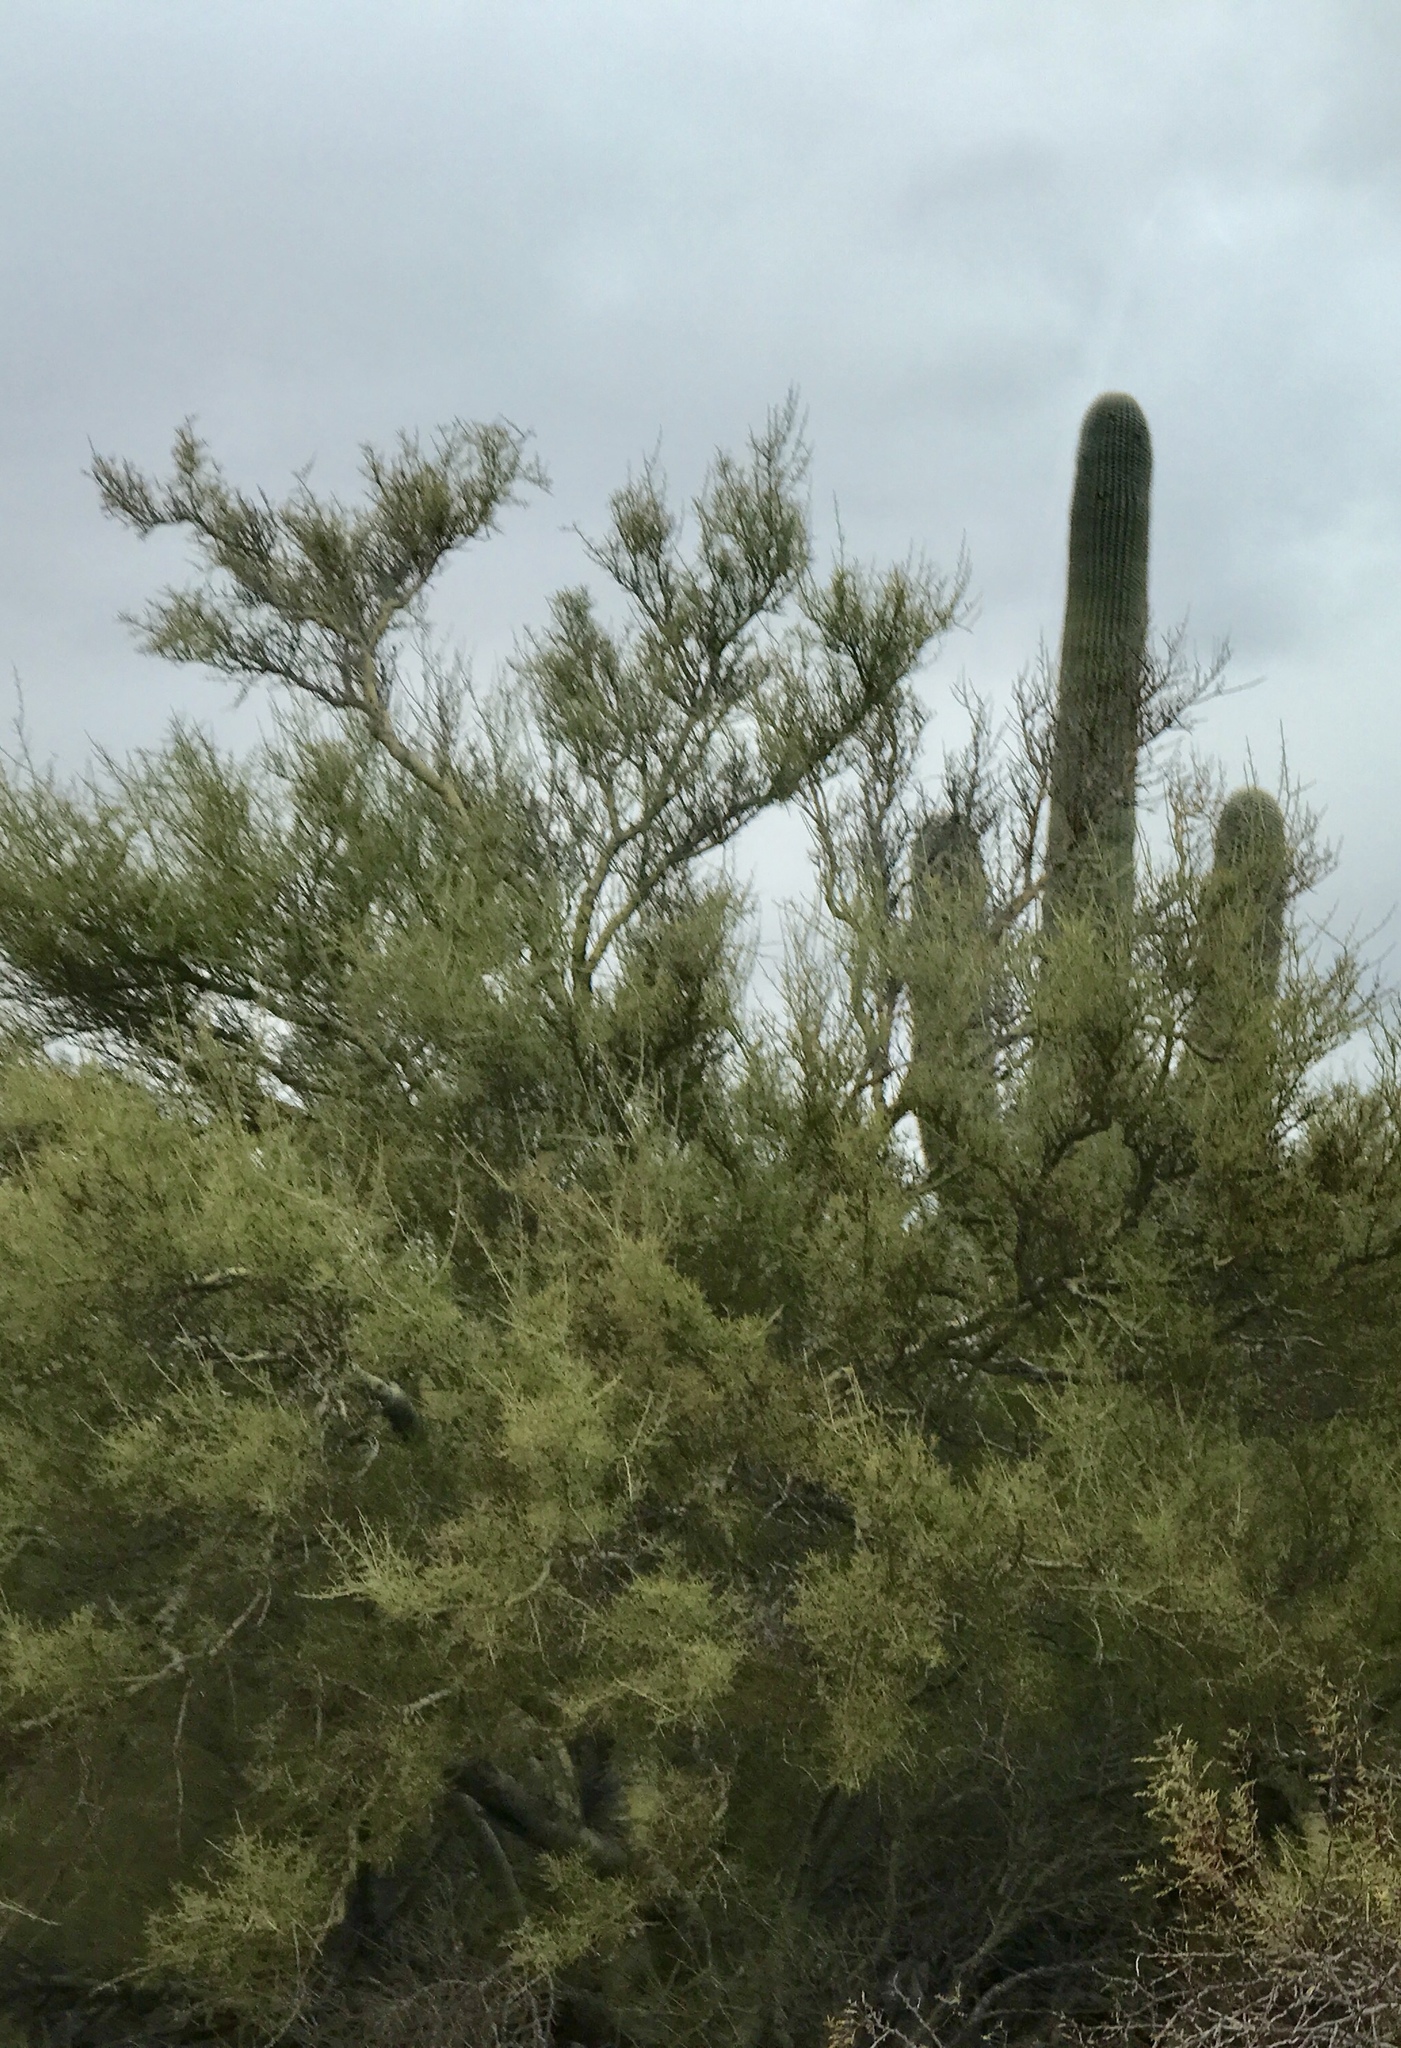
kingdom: Plantae
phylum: Tracheophyta
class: Magnoliopsida
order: Fabales
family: Fabaceae
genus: Parkinsonia
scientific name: Parkinsonia microphylla
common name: Yellow paloverde
